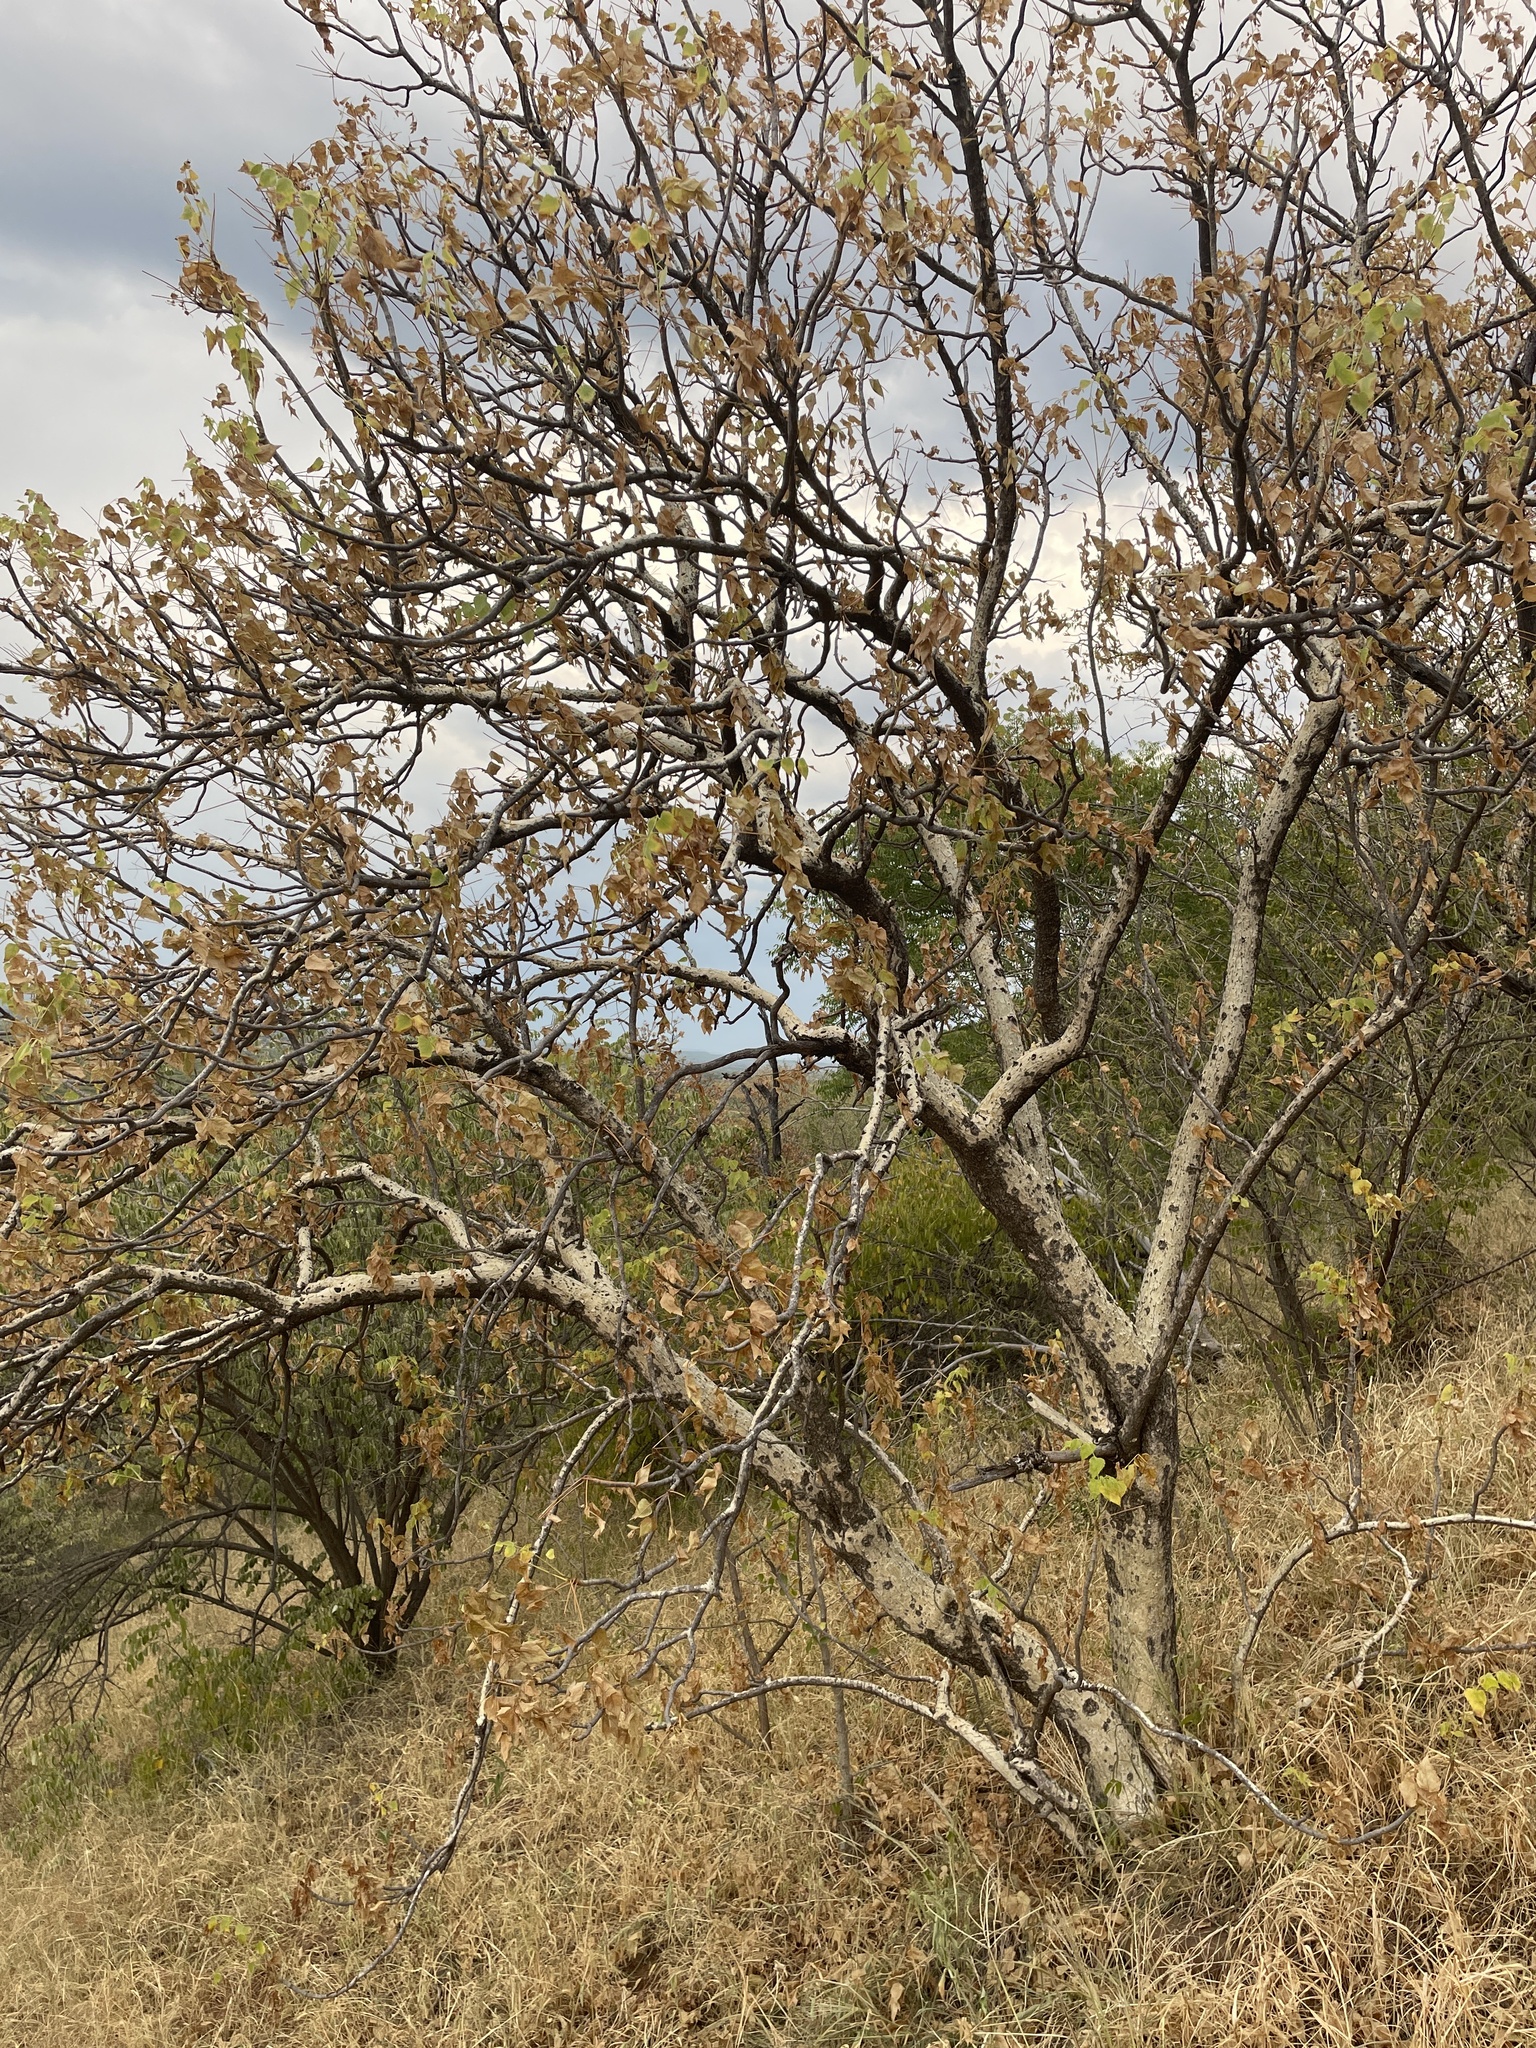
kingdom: Plantae
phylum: Tracheophyta
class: Magnoliopsida
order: Apiales
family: Apiaceae
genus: Steganotaenia
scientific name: Steganotaenia araliacea
